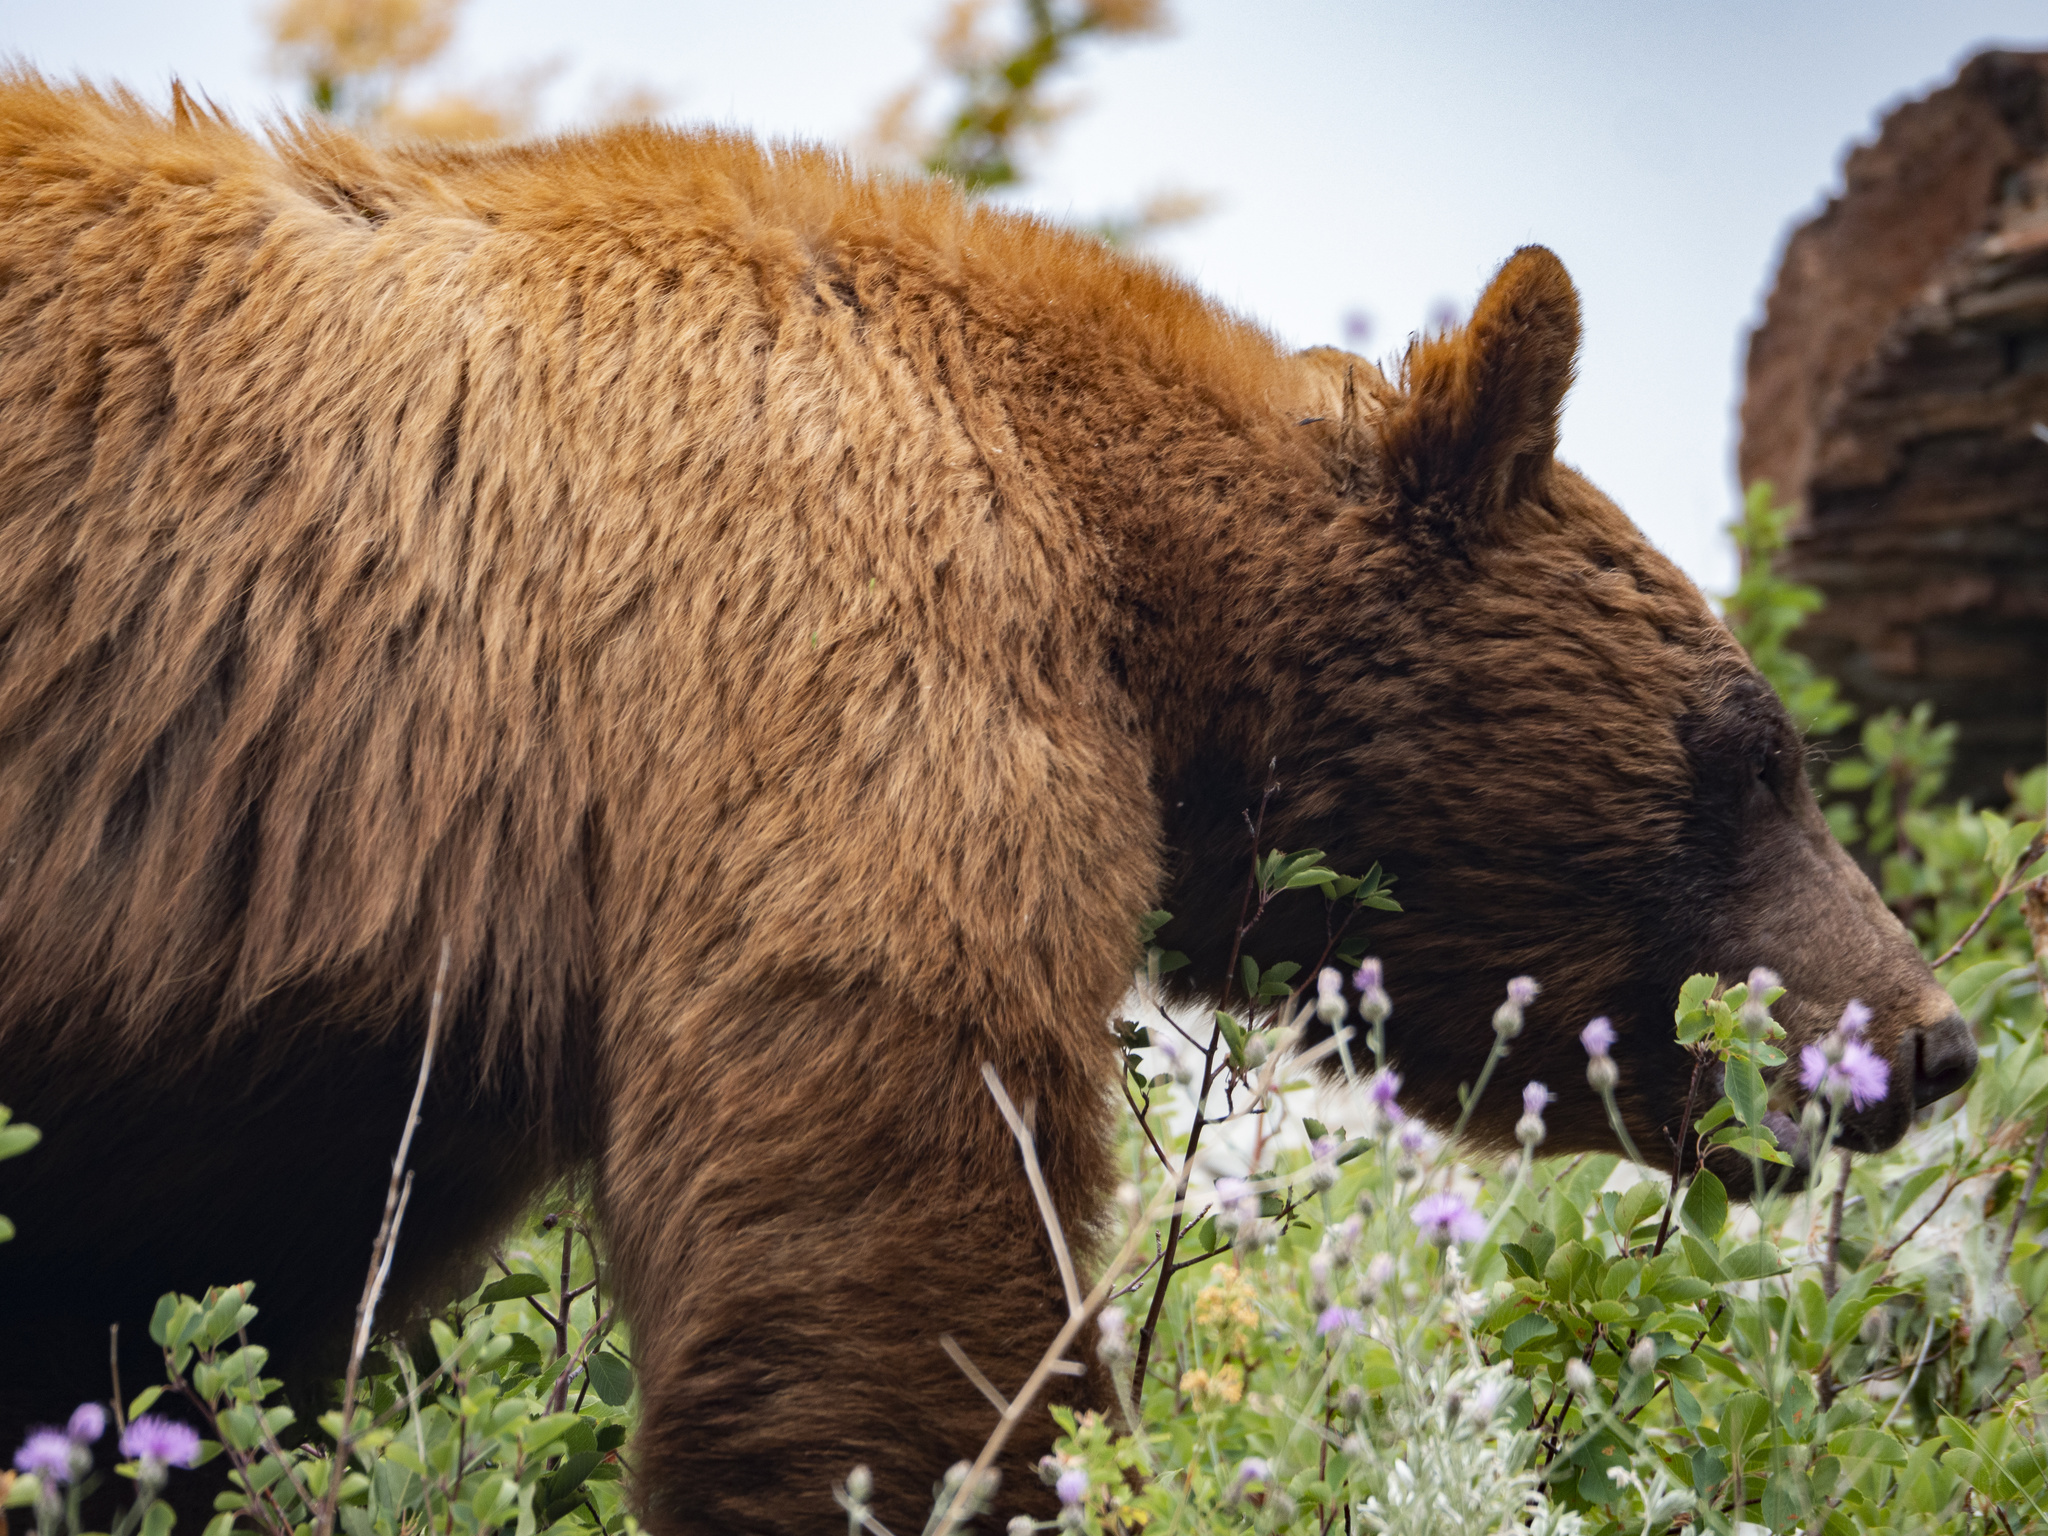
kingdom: Animalia
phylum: Chordata
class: Mammalia
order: Carnivora
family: Ursidae
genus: Ursus
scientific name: Ursus americanus
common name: American black bear
